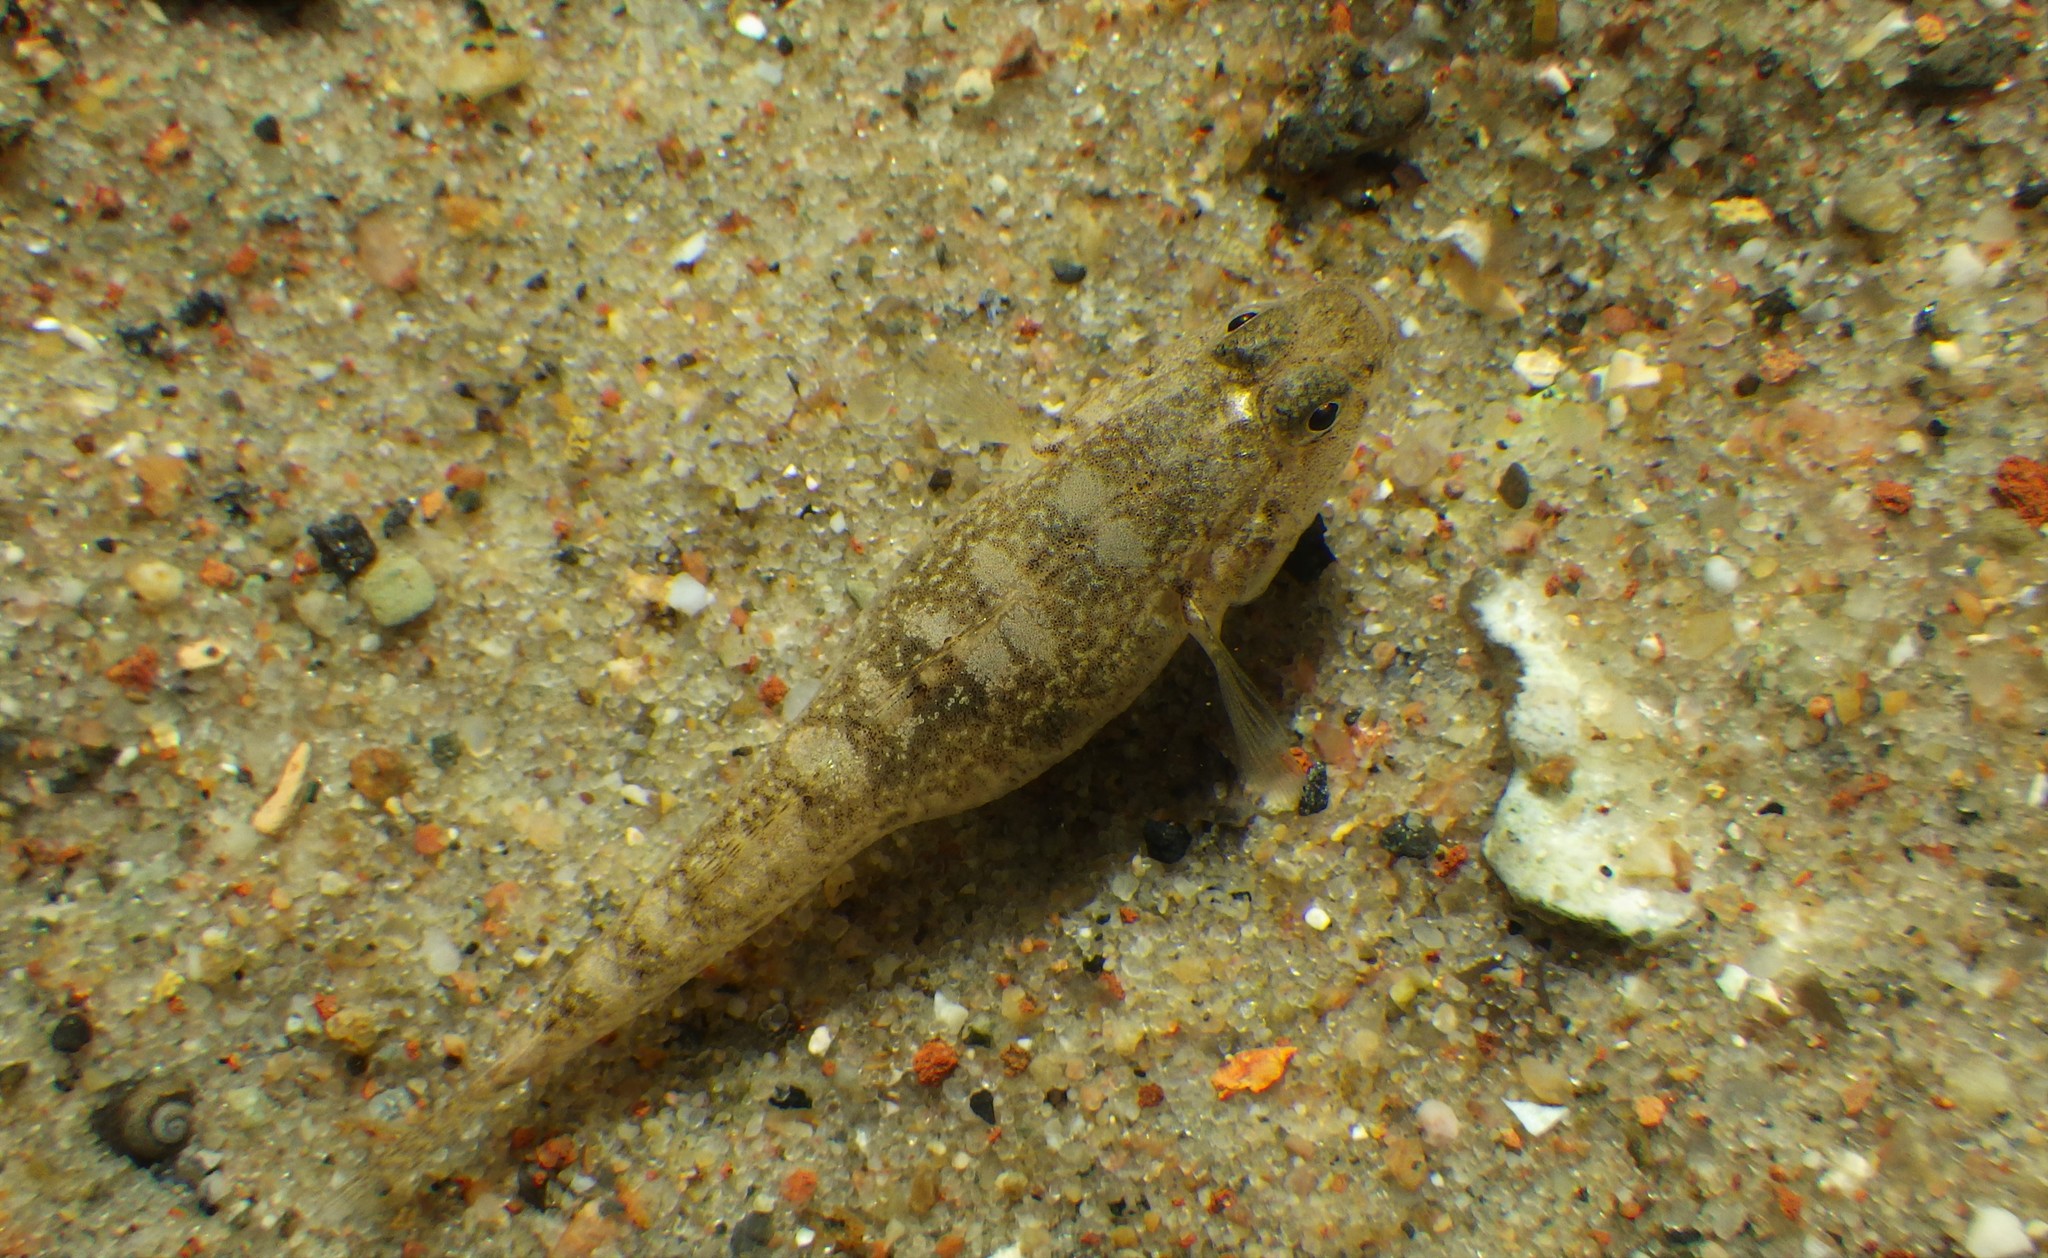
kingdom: Animalia
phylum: Chordata
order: Perciformes
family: Gobiidae
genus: Pomatoschistus
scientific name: Pomatoschistus microps
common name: Common goby
